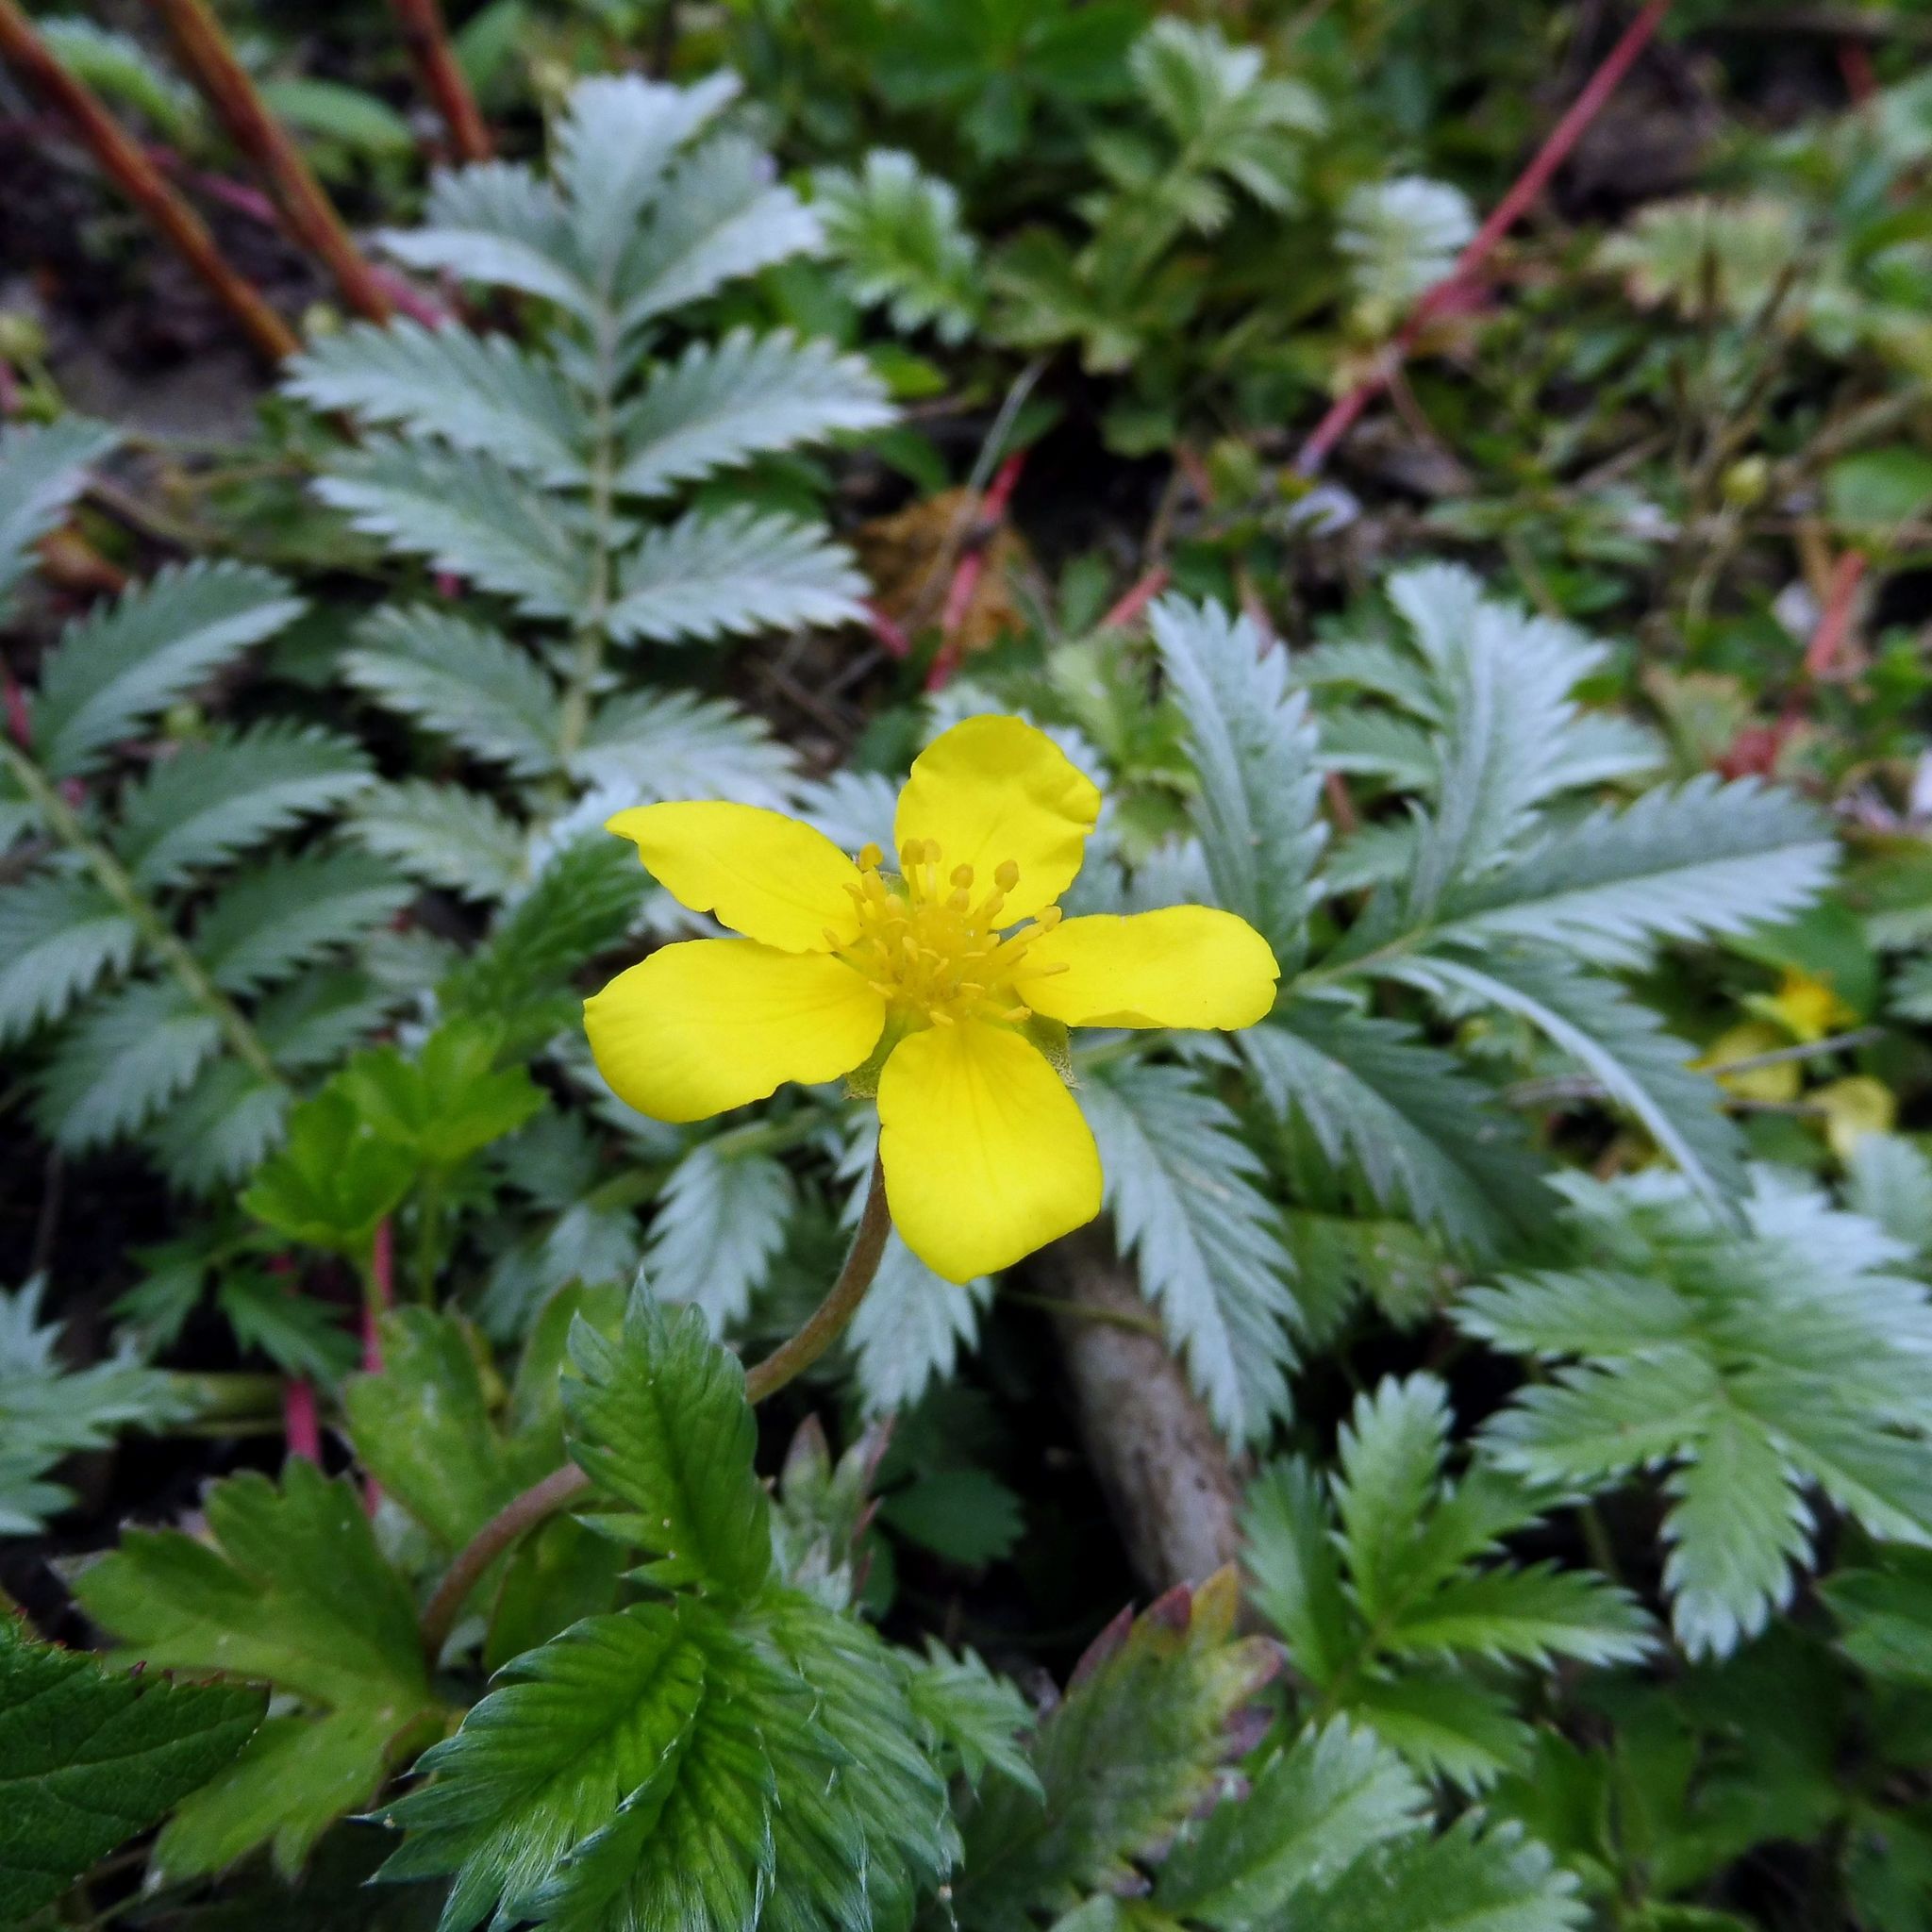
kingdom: Plantae
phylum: Tracheophyta
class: Magnoliopsida
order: Rosales
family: Rosaceae
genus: Argentina
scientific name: Argentina anserina
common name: Common silverweed
